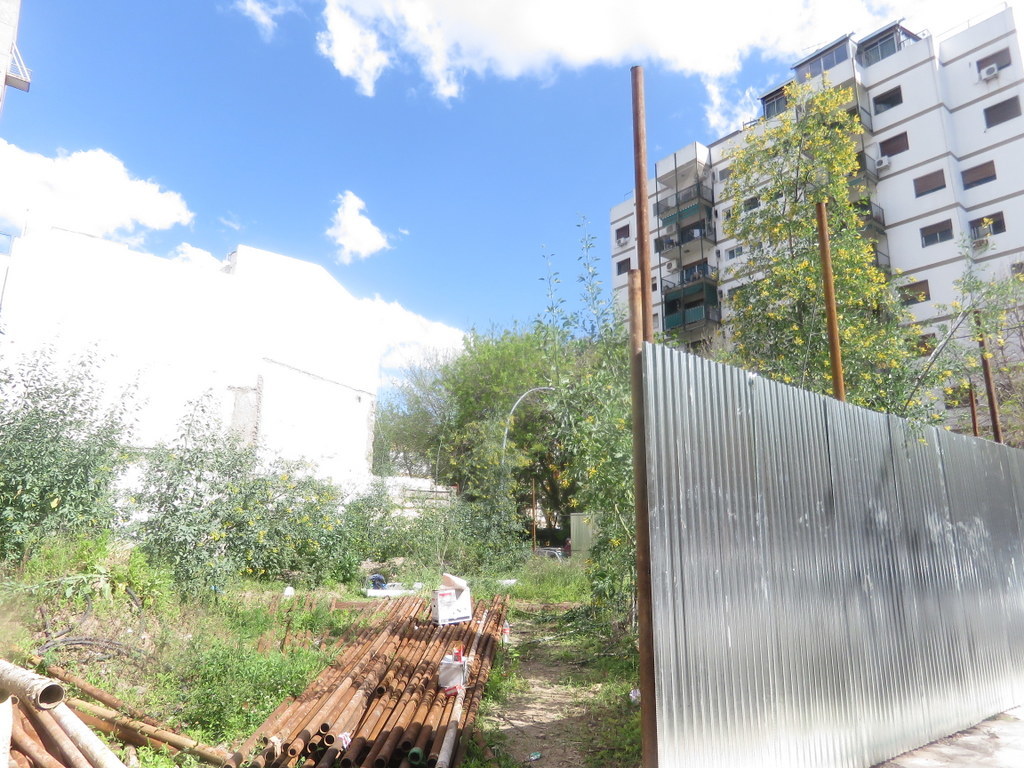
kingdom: Plantae
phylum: Tracheophyta
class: Magnoliopsida
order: Solanales
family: Solanaceae
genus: Nicotiana
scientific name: Nicotiana glauca
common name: Tree tobacco
